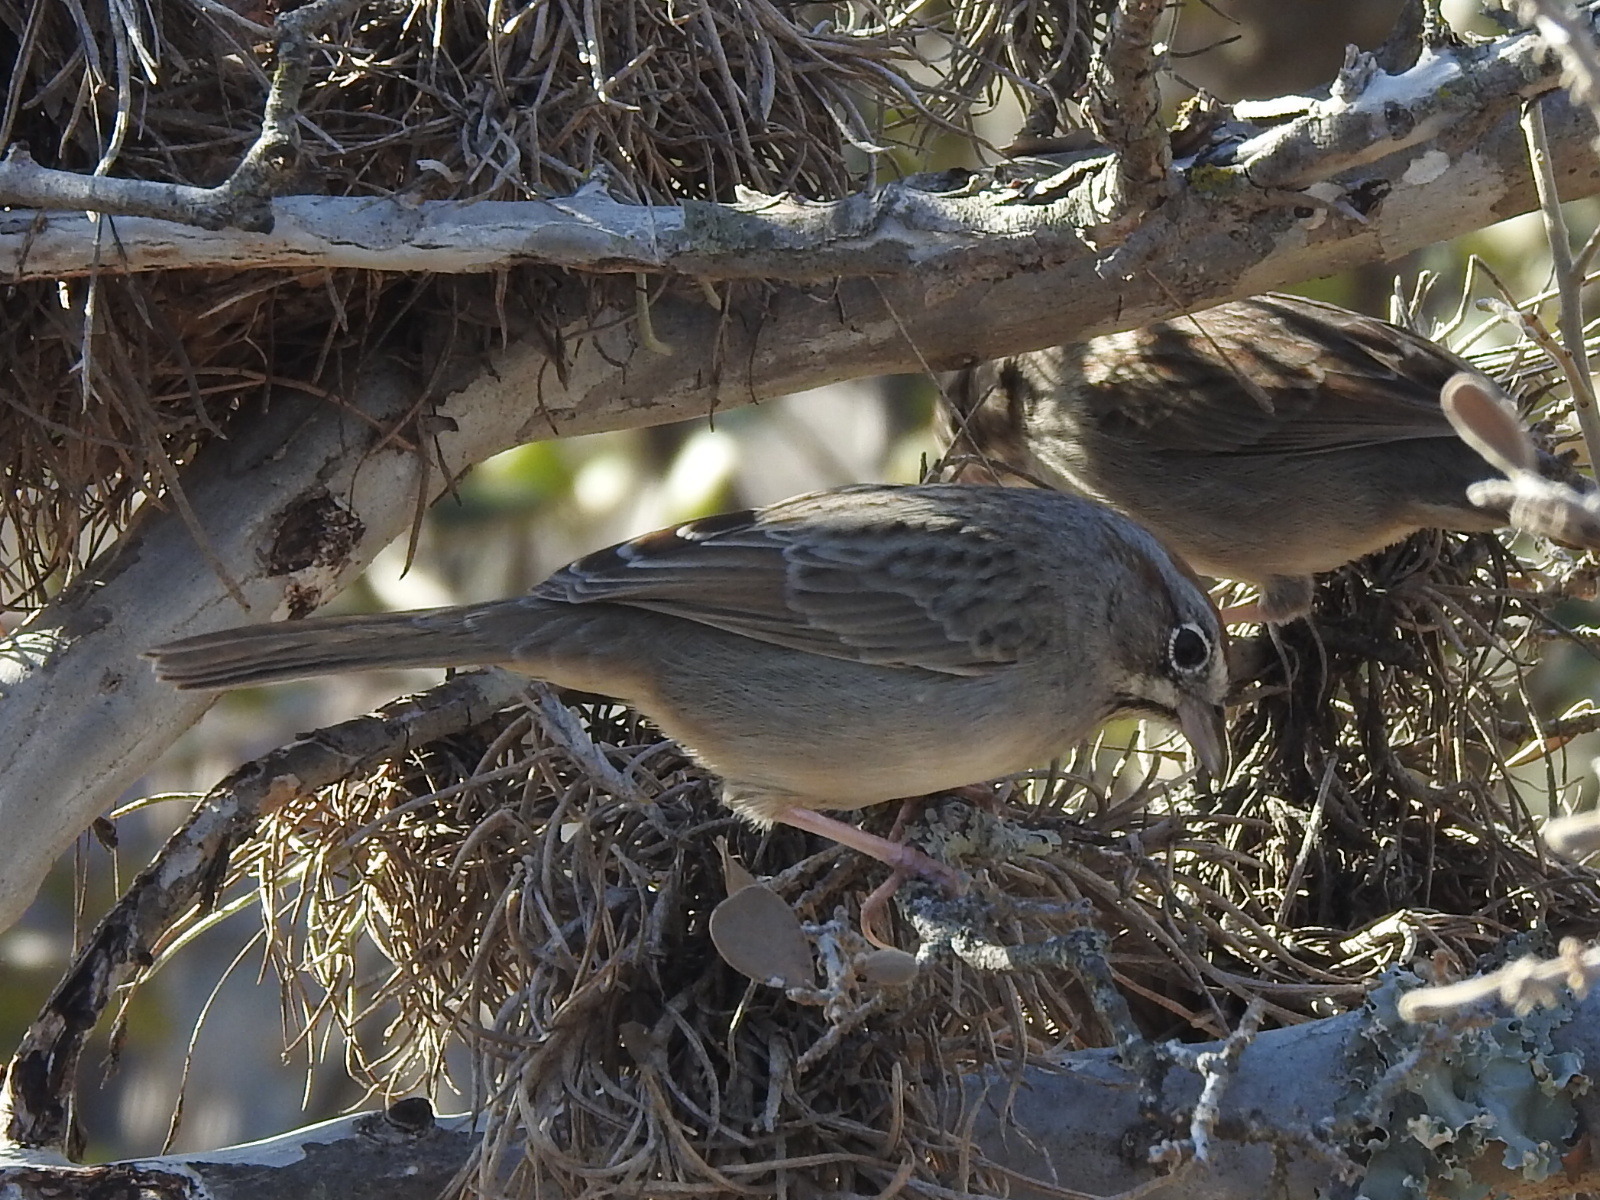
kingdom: Animalia
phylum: Chordata
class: Aves
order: Passeriformes
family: Passerellidae
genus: Aimophila
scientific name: Aimophila ruficeps
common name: Rufous-crowned sparrow
